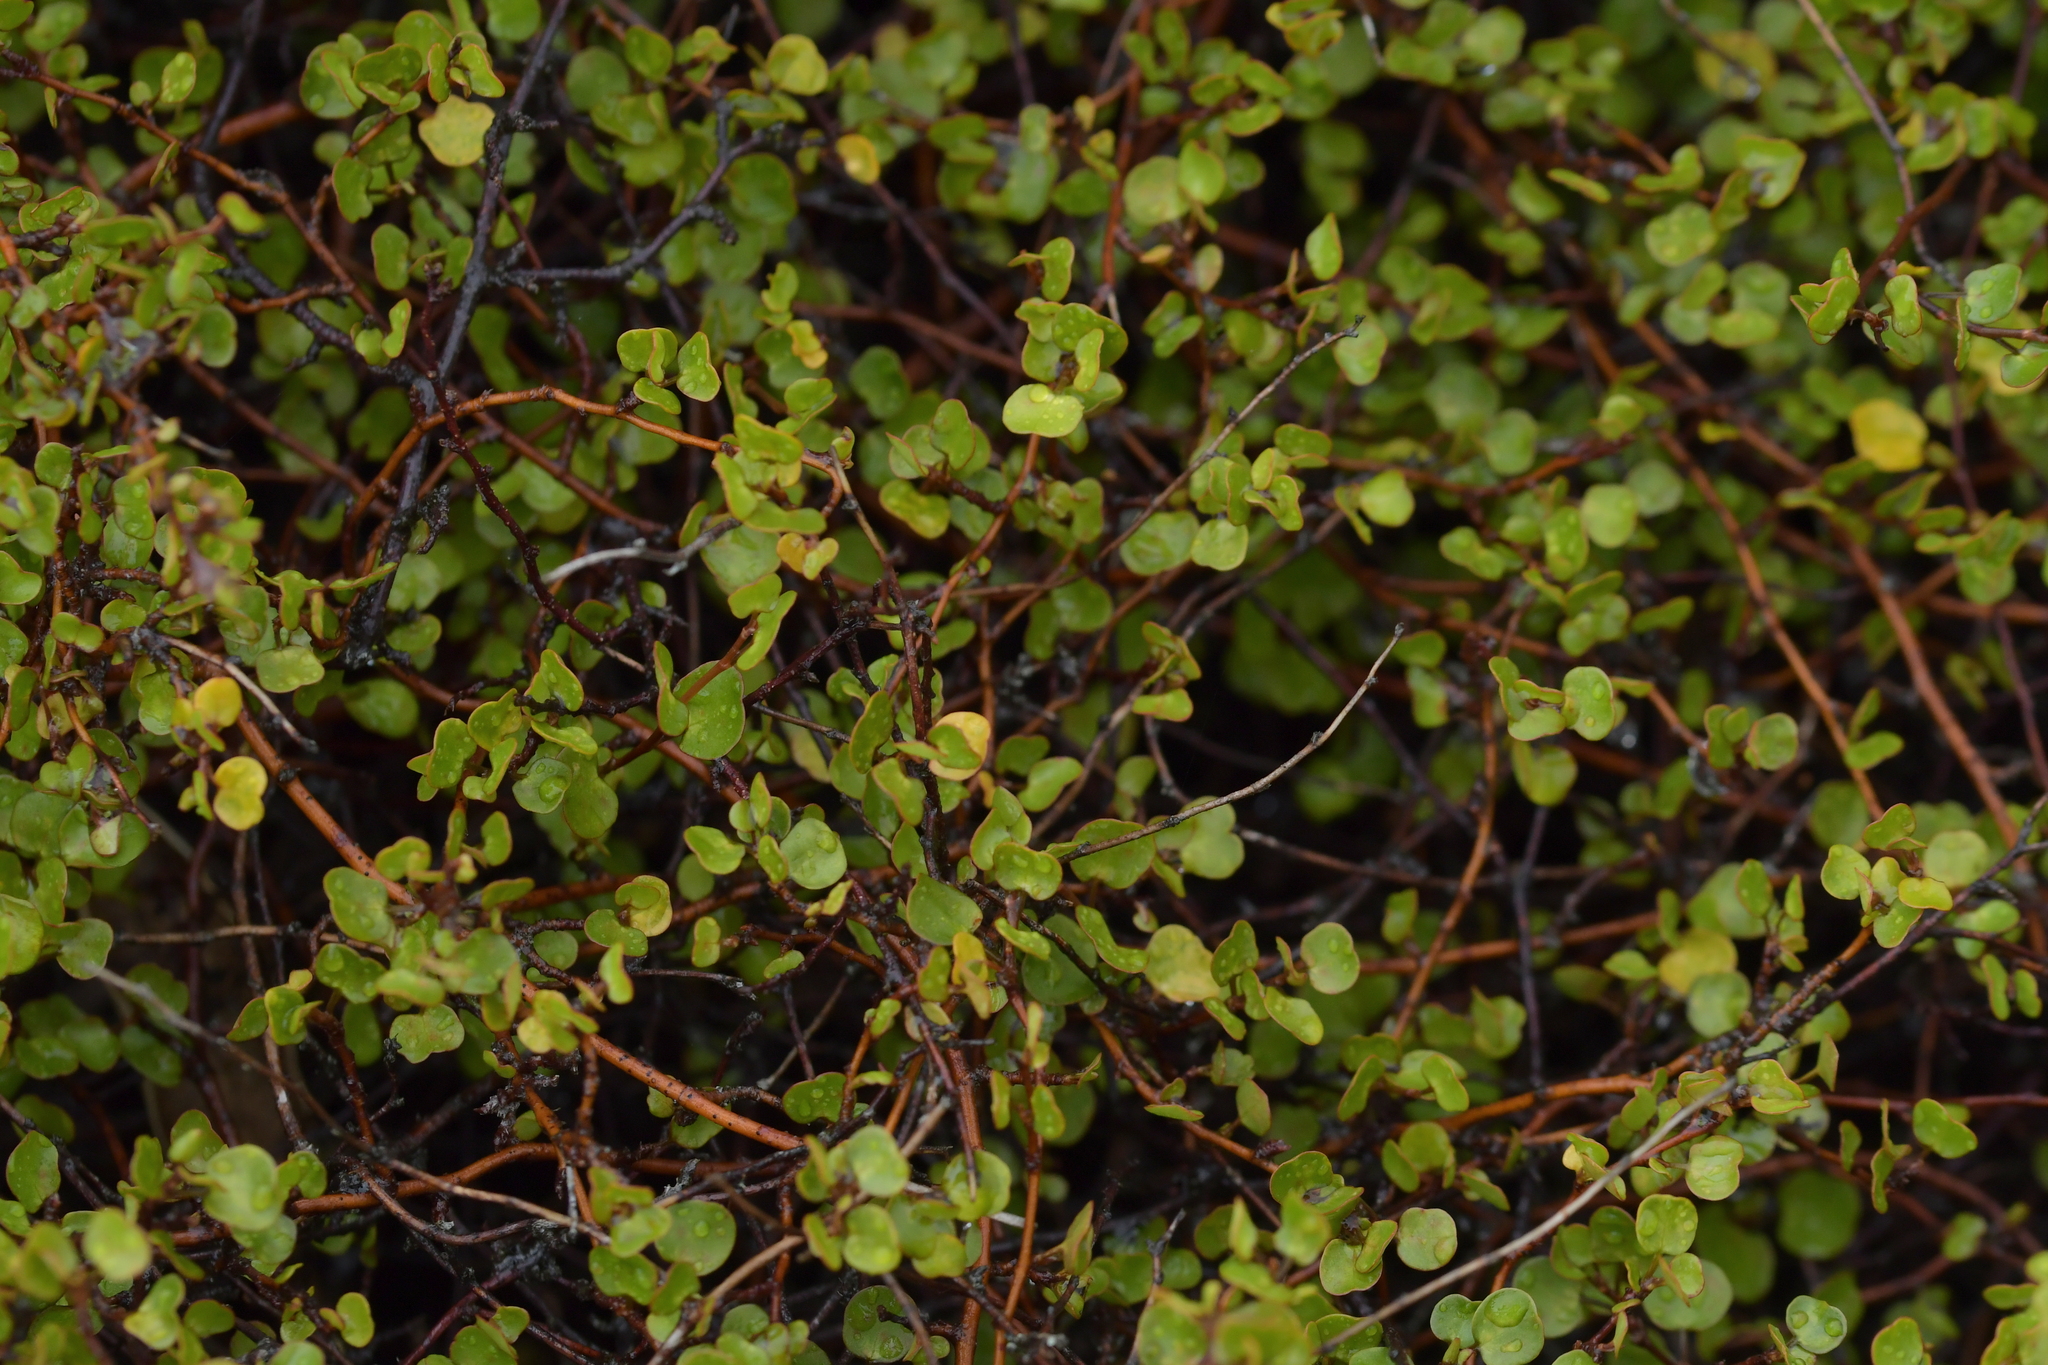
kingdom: Plantae
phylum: Tracheophyta
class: Magnoliopsida
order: Caryophyllales
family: Polygonaceae
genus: Muehlenbeckia
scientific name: Muehlenbeckia complexa
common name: Wireplant
